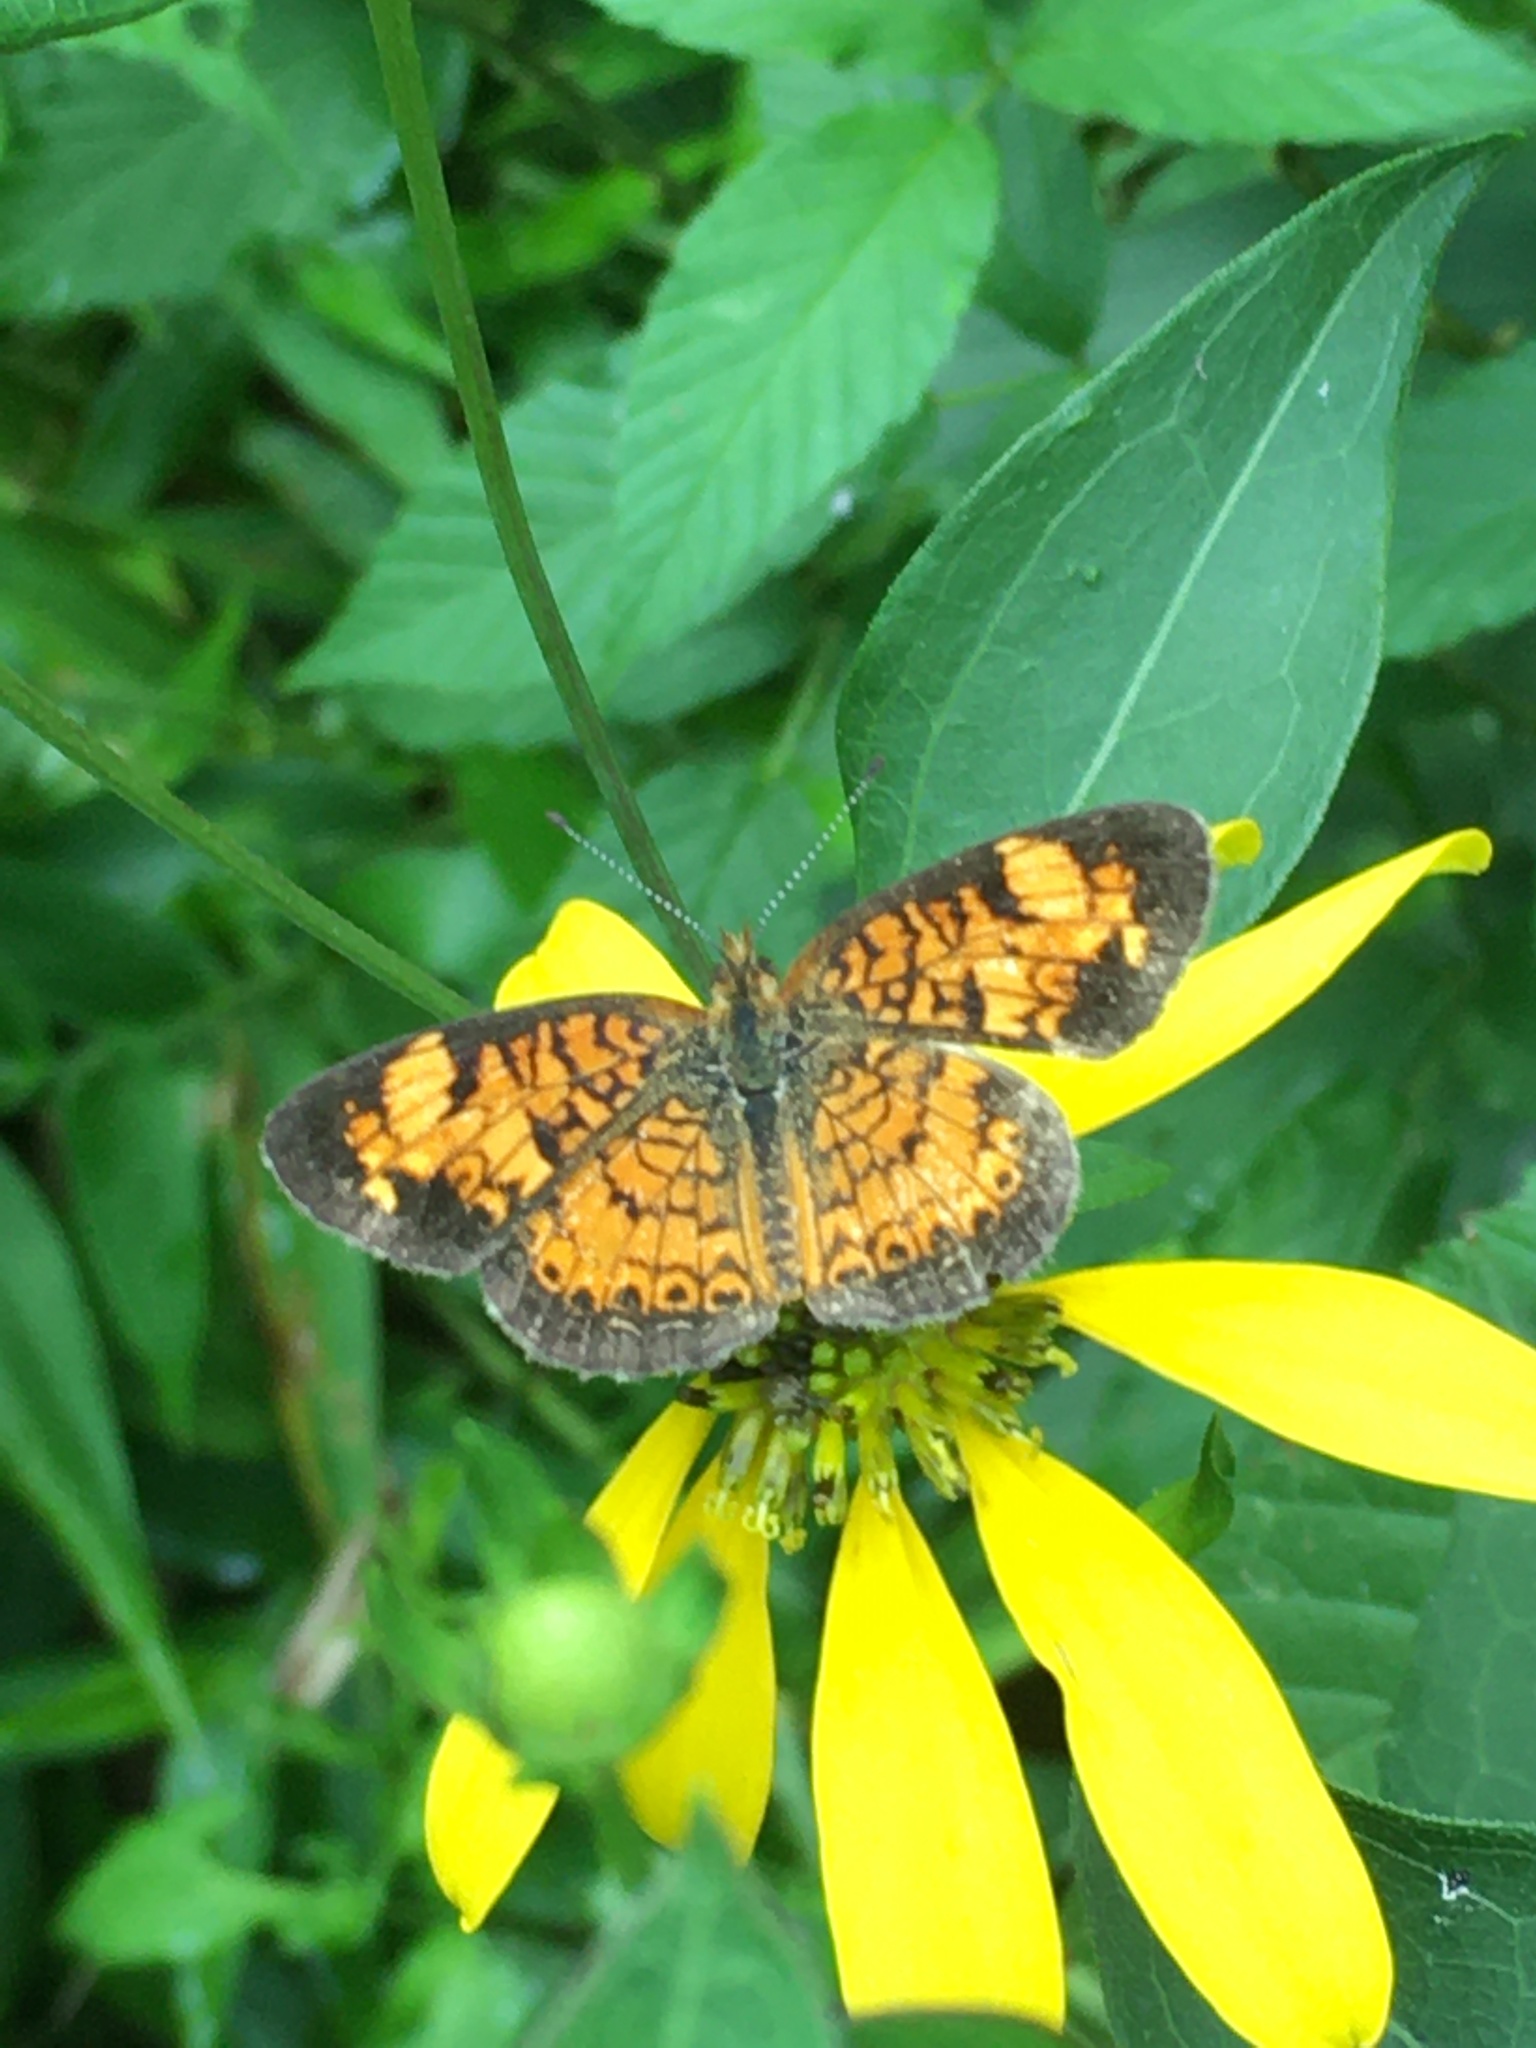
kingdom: Animalia
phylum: Arthropoda
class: Insecta
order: Lepidoptera
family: Nymphalidae
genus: Phyciodes
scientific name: Phyciodes tharos
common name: Pearl crescent
